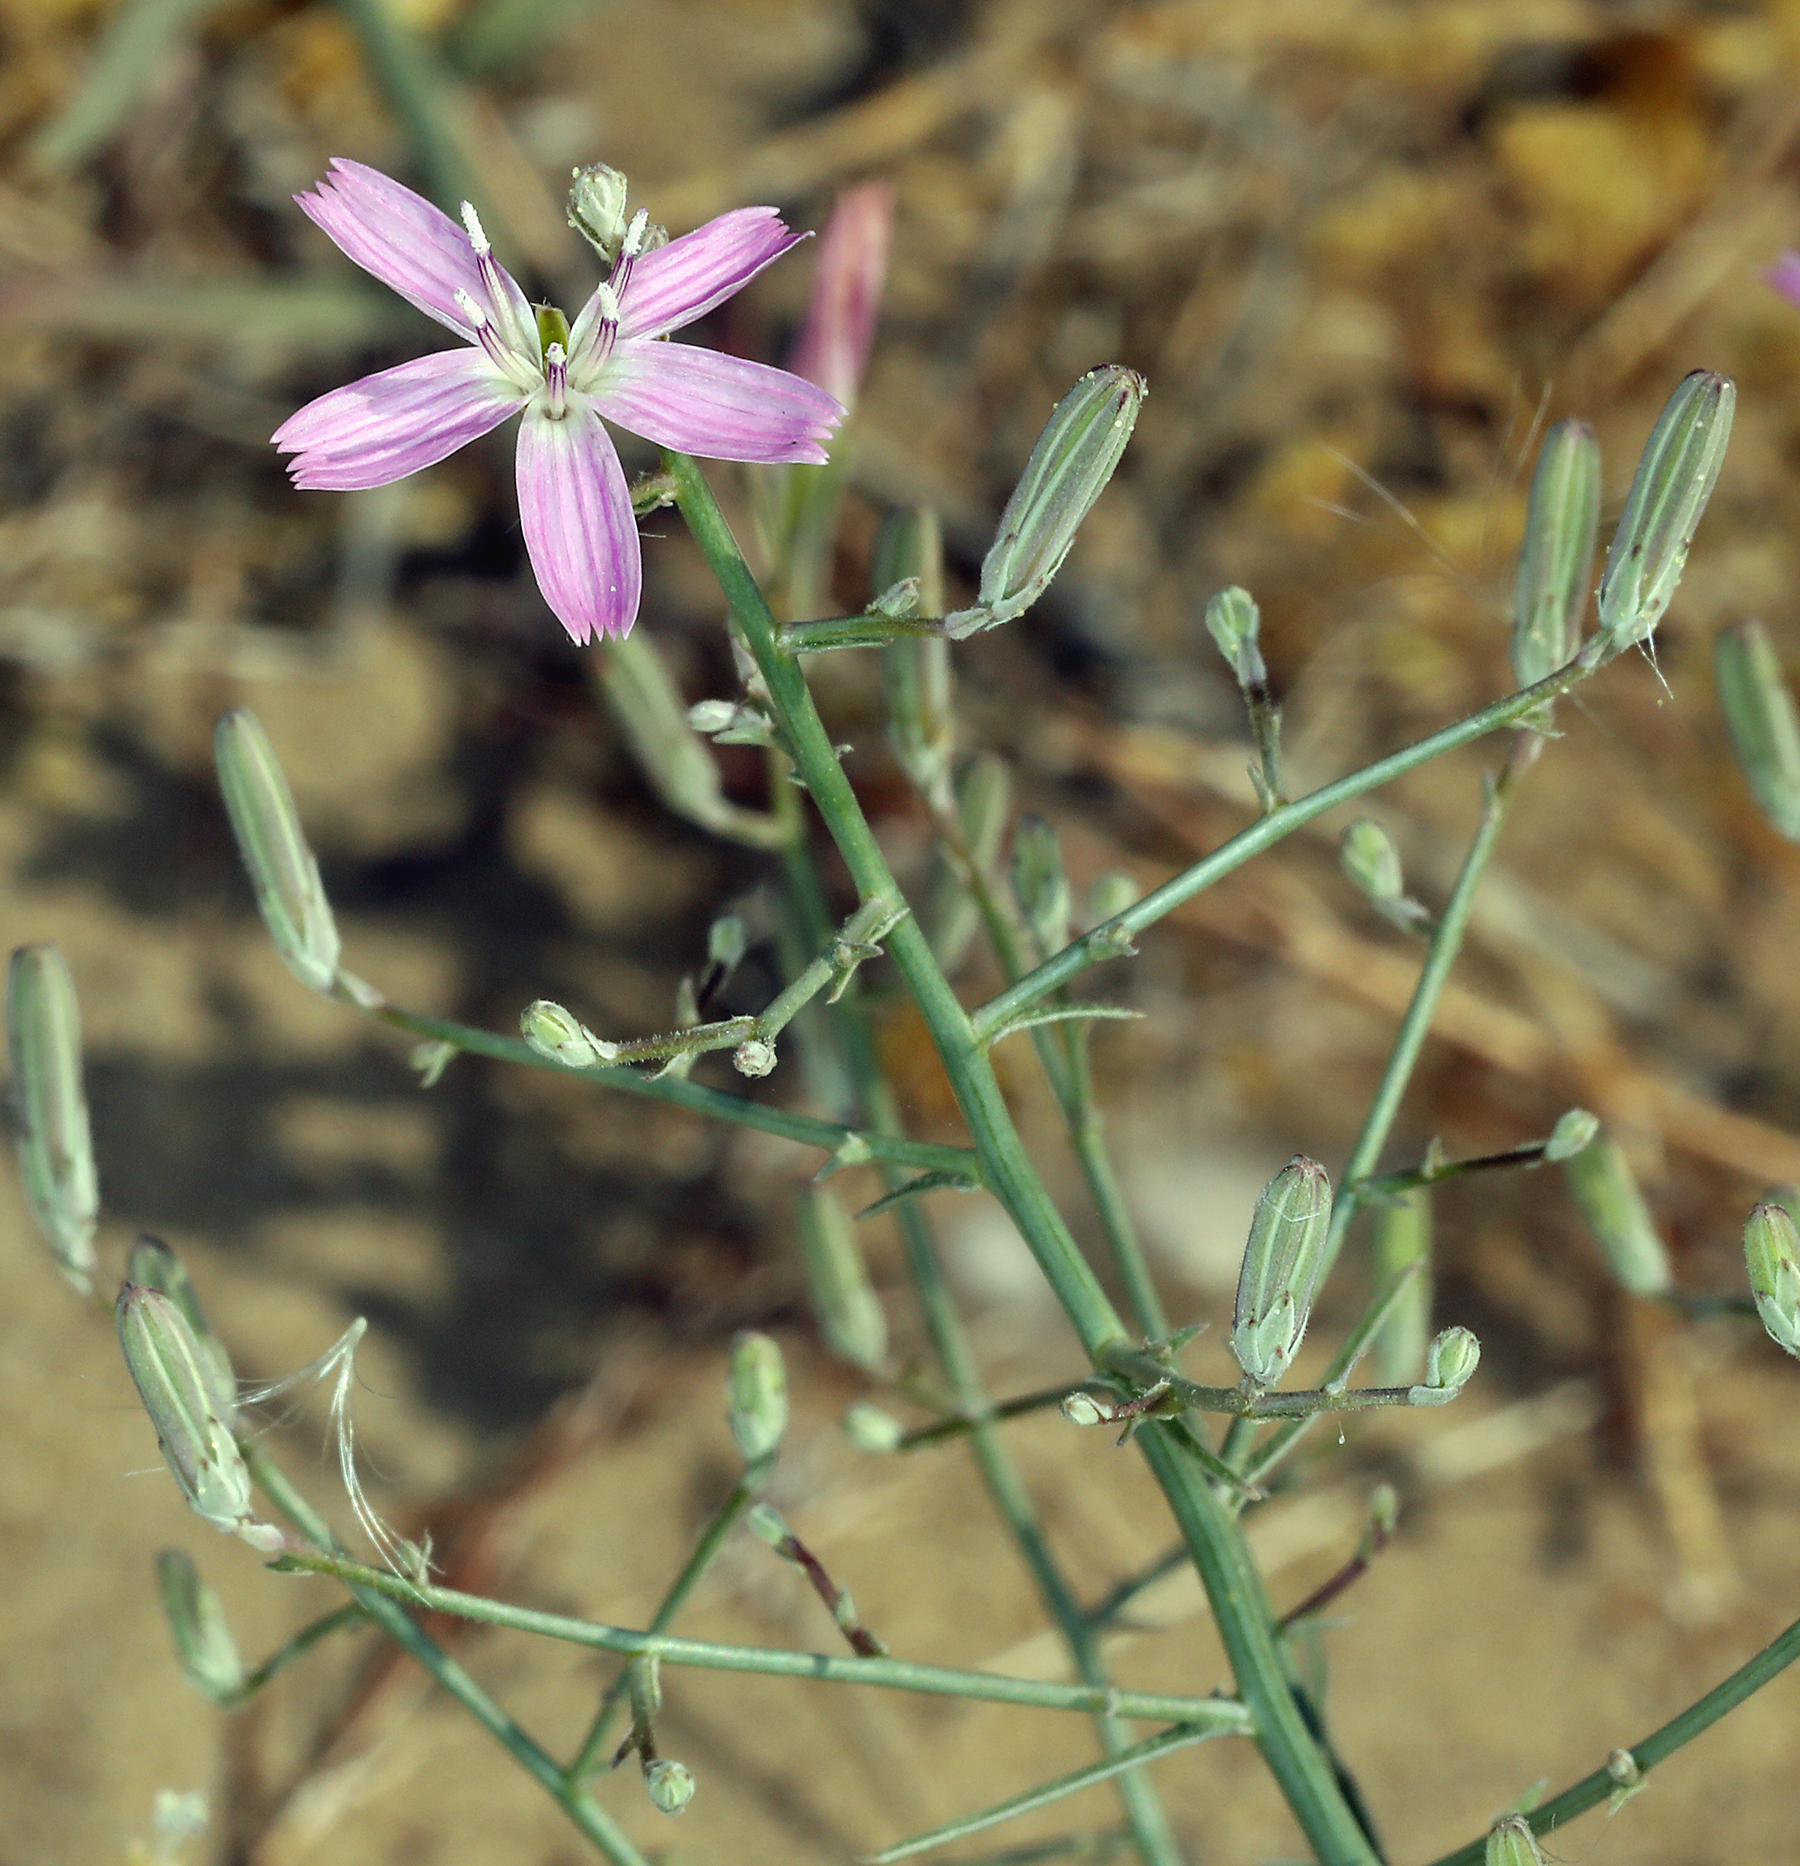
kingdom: Plantae
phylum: Tracheophyta
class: Magnoliopsida
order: Asterales
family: Asteraceae
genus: Stephanomeria
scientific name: Stephanomeria exigua
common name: Small wirelettuce
